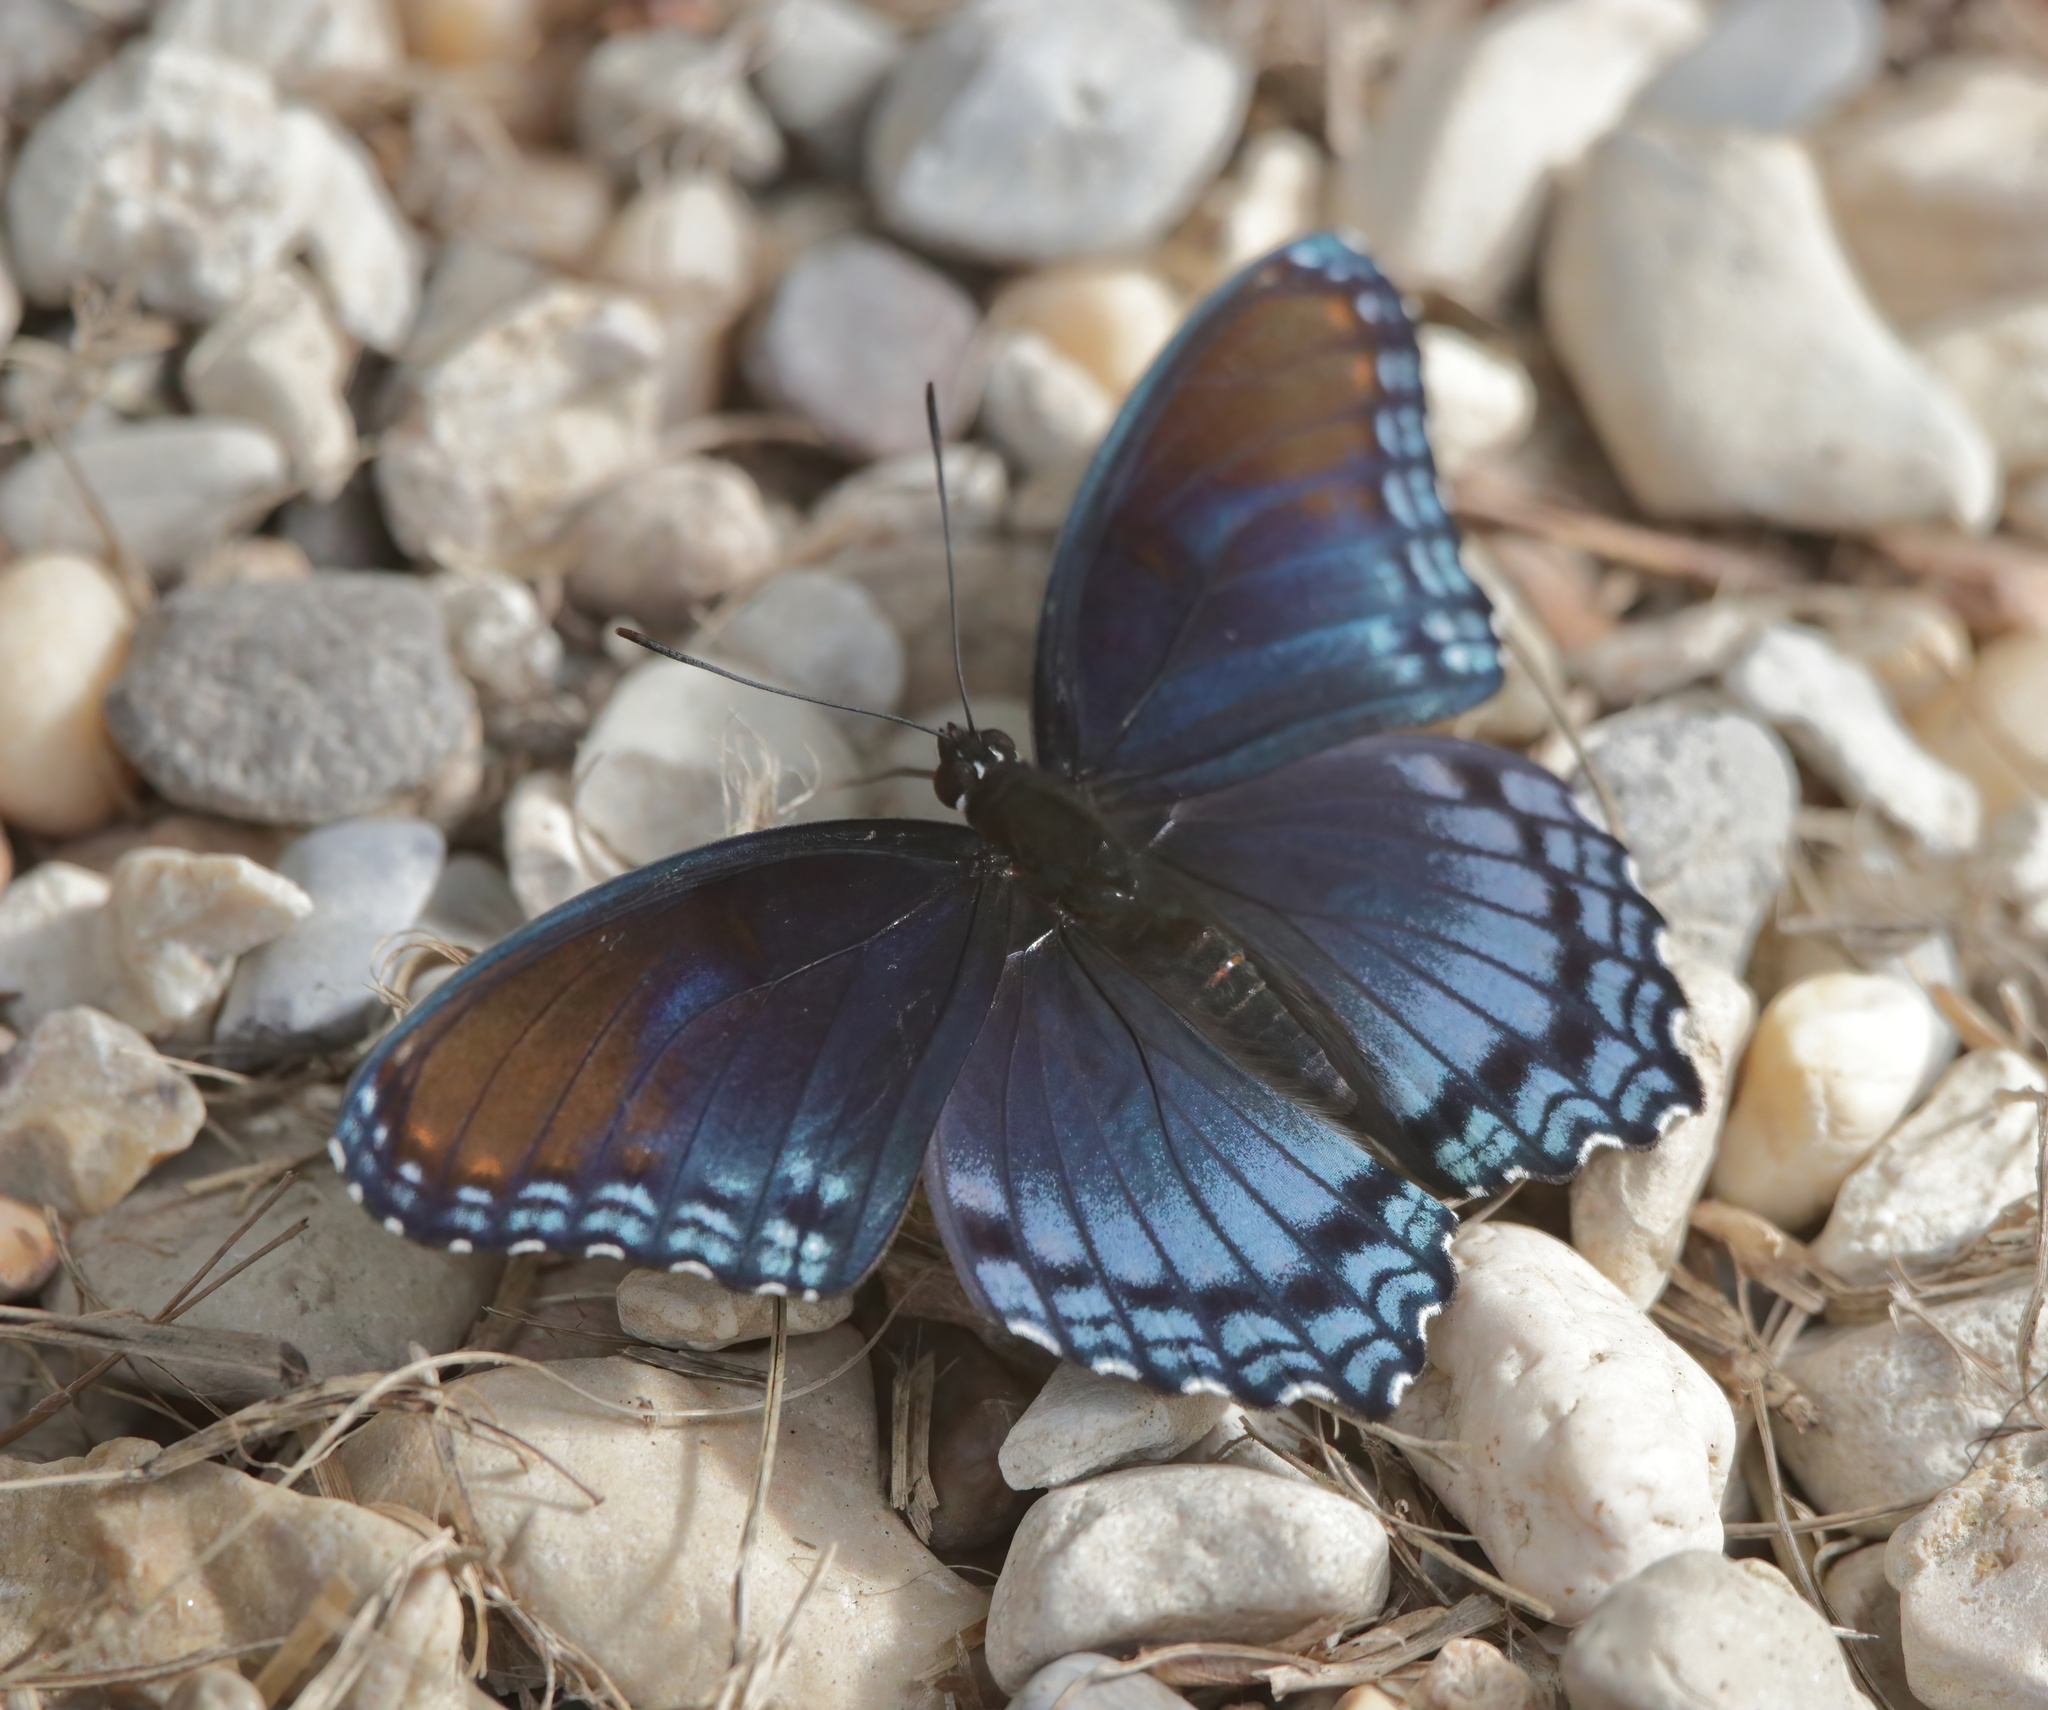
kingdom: Animalia
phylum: Arthropoda
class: Insecta
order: Lepidoptera
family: Nymphalidae
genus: Limenitis
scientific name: Limenitis arthemis
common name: Red-spotted admiral
